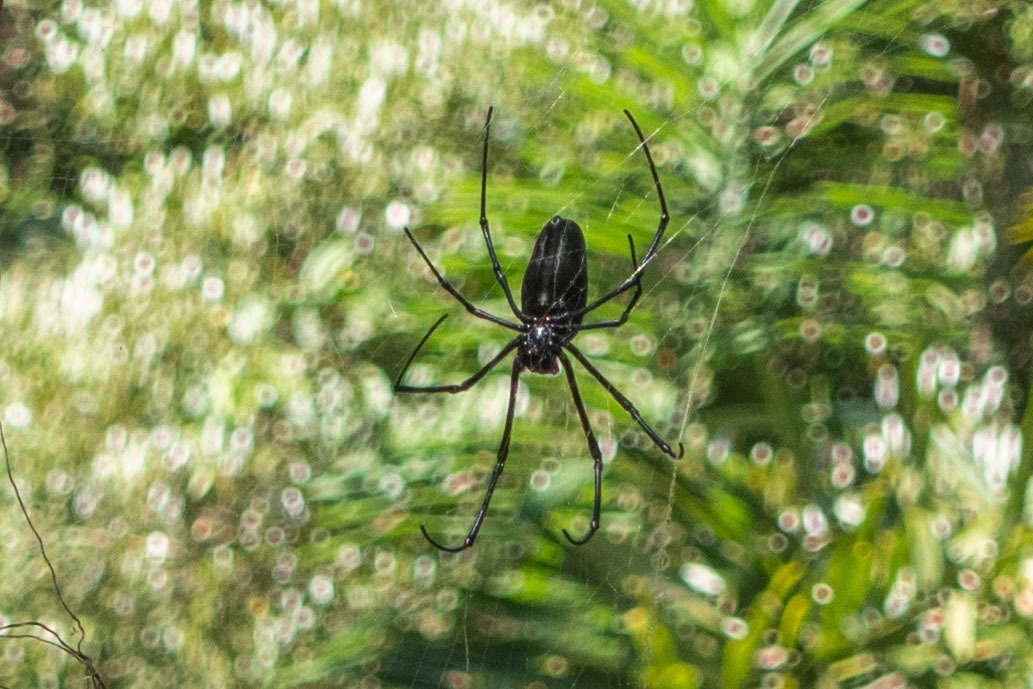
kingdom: Animalia
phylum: Arthropoda
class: Arachnida
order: Araneae
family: Araneidae
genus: Nephila
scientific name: Nephila kuhli
